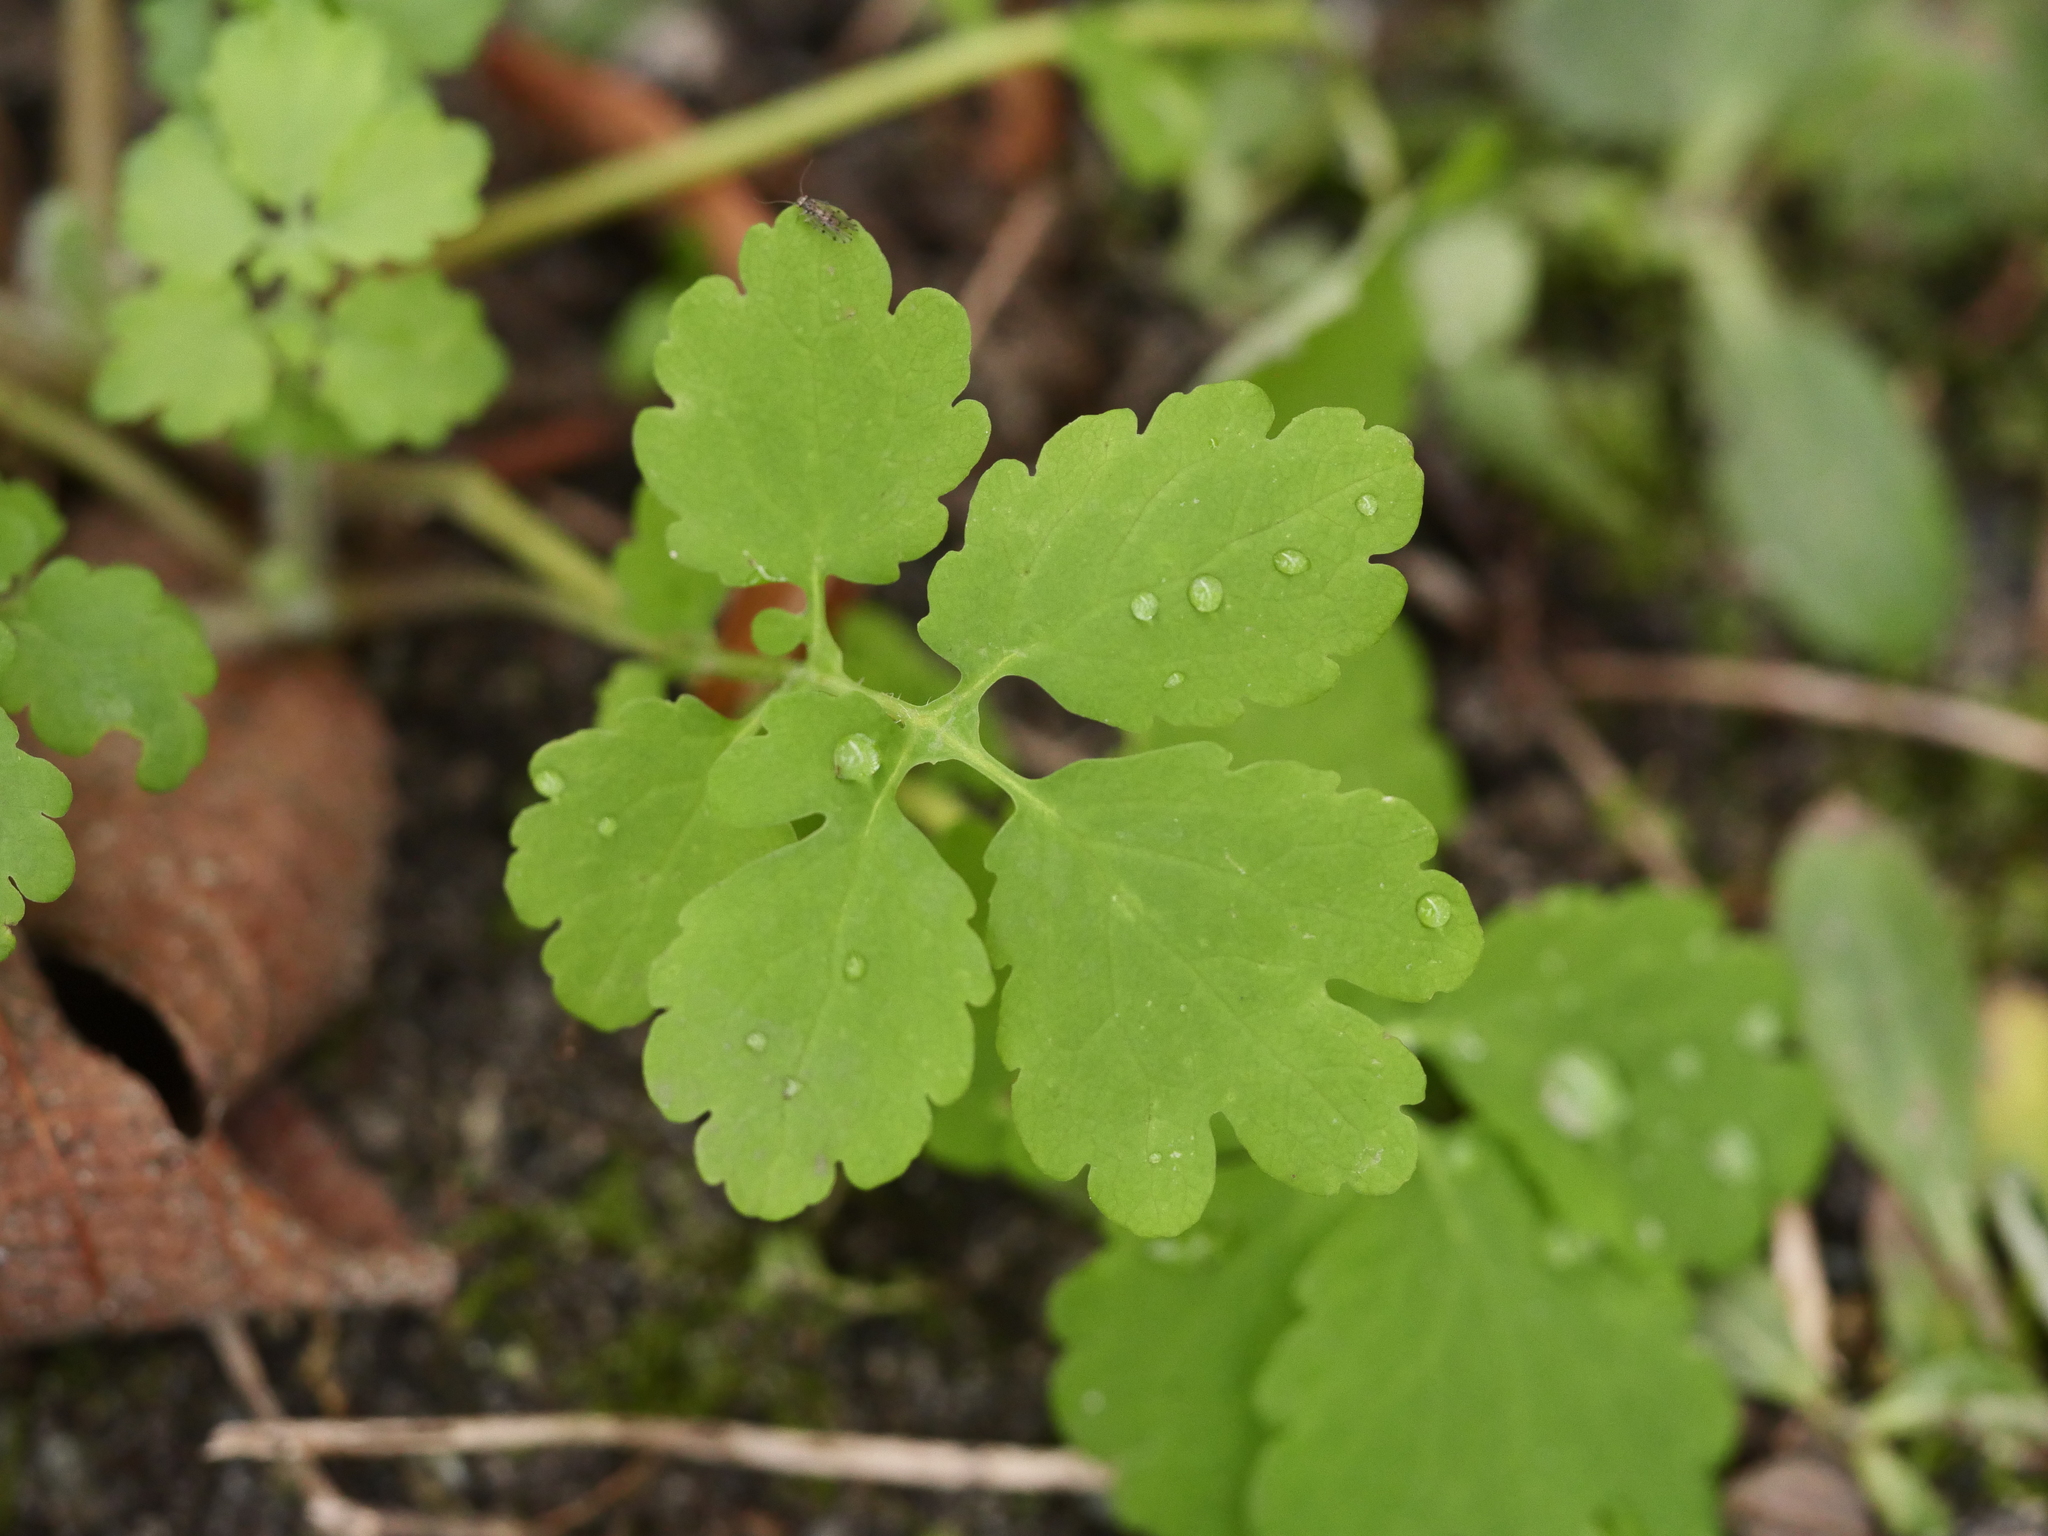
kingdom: Plantae
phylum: Tracheophyta
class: Magnoliopsida
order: Ranunculales
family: Papaveraceae
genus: Chelidonium
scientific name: Chelidonium majus
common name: Greater celandine
